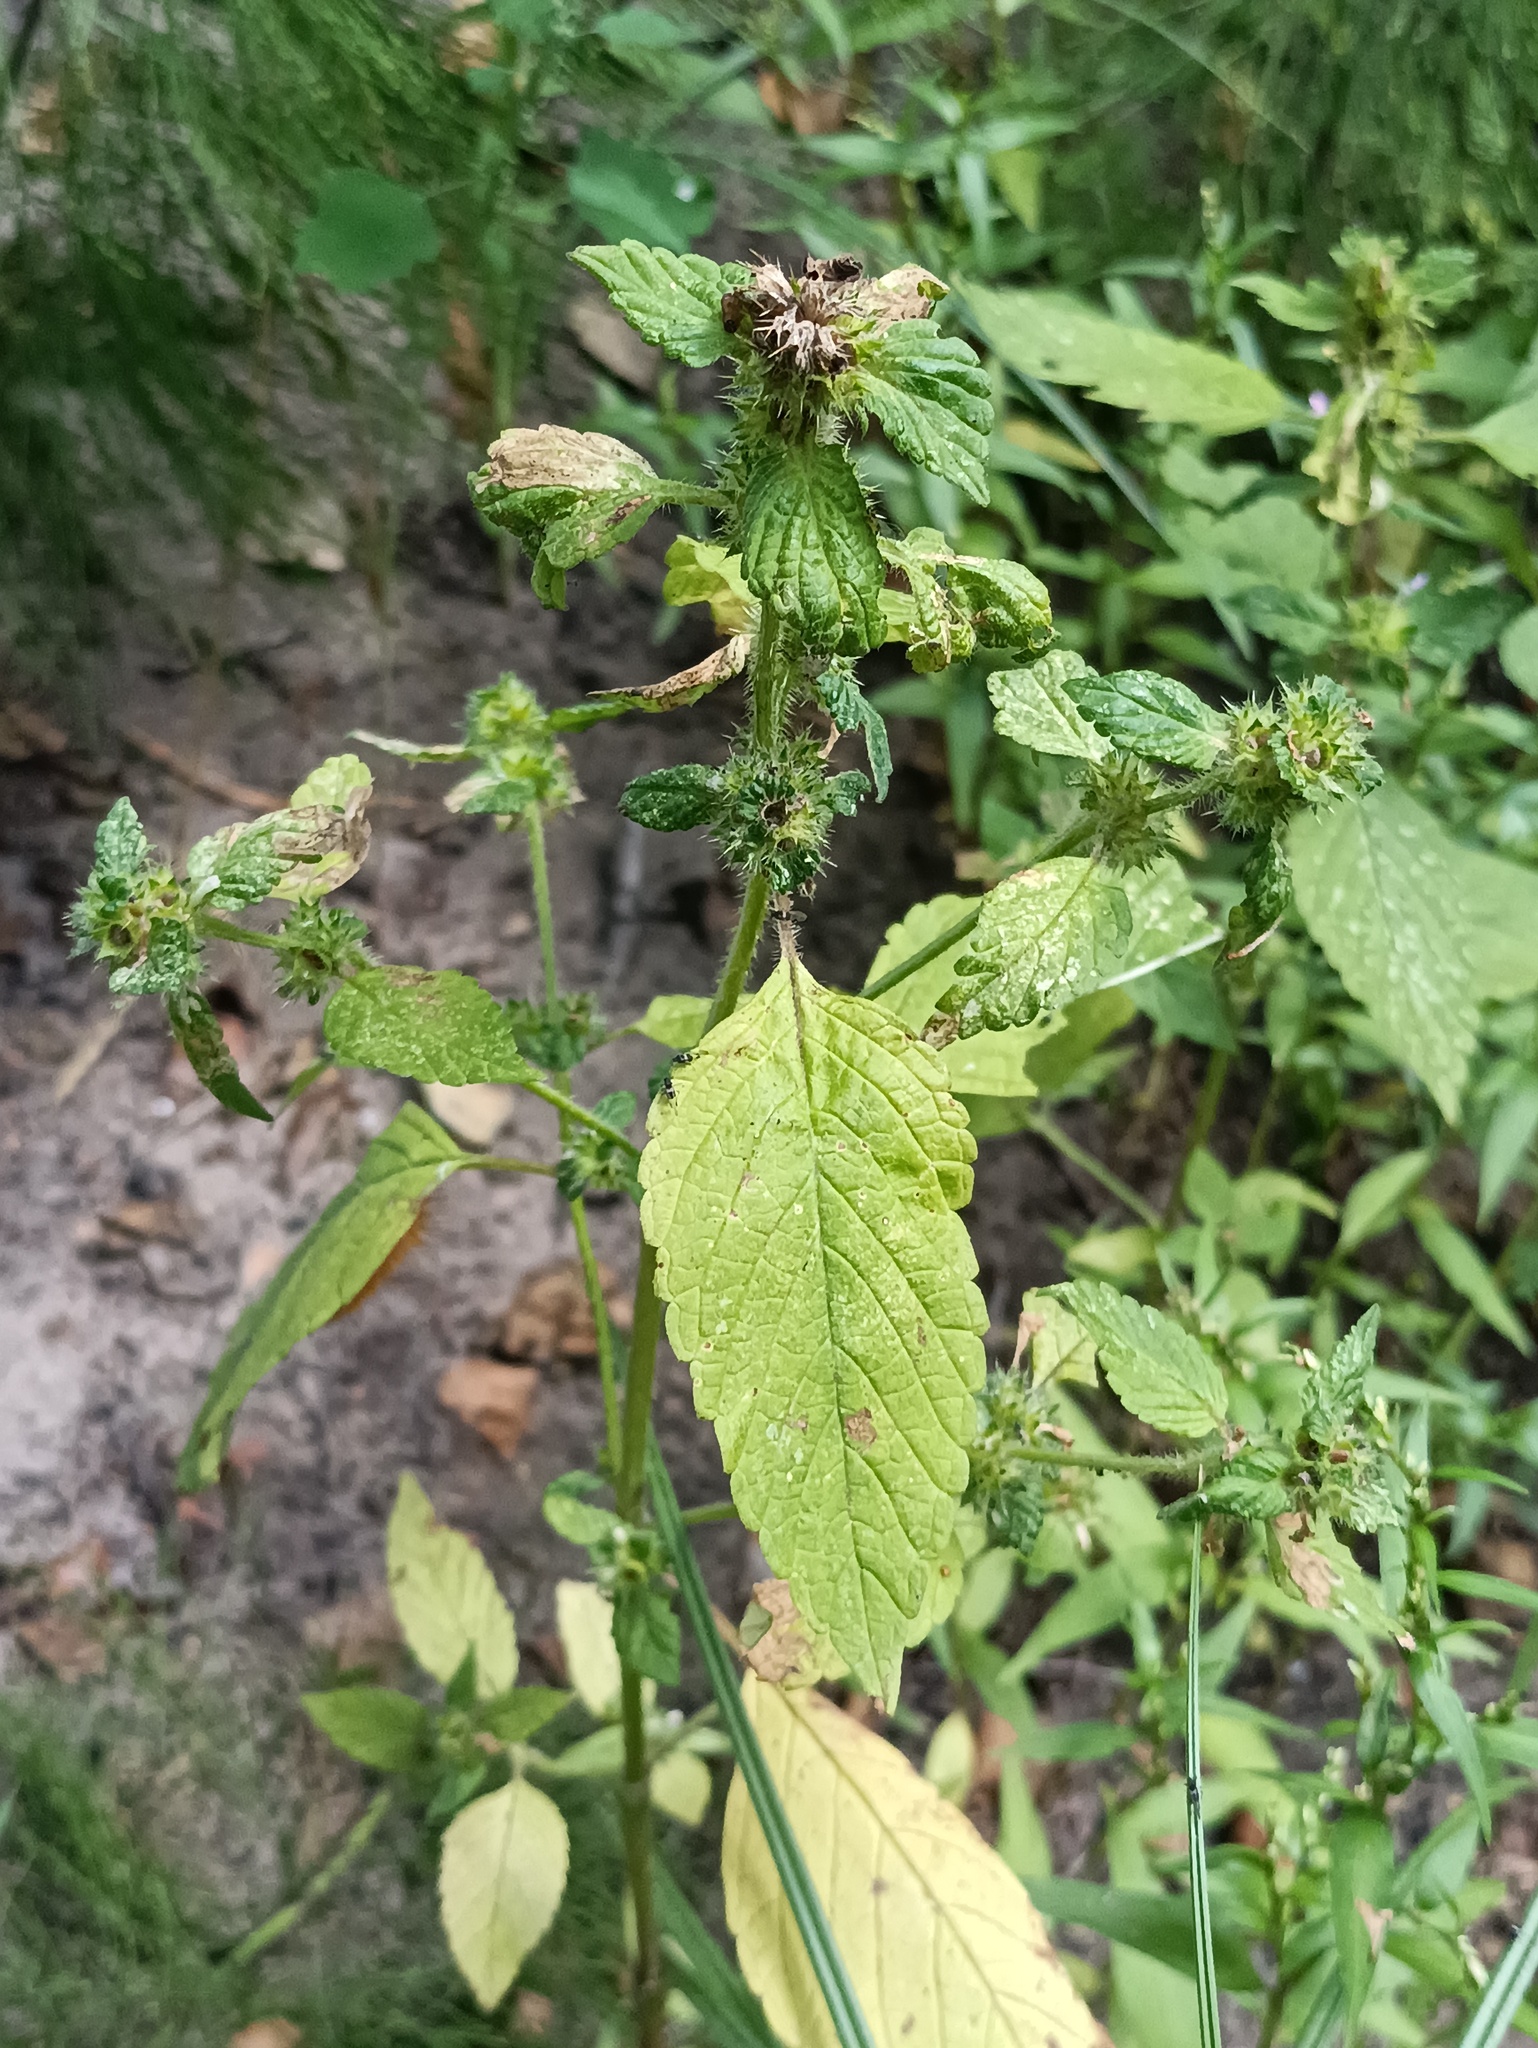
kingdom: Plantae
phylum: Tracheophyta
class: Magnoliopsida
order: Lamiales
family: Lamiaceae
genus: Galeopsis
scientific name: Galeopsis bifida
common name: Bifid hemp-nettle
